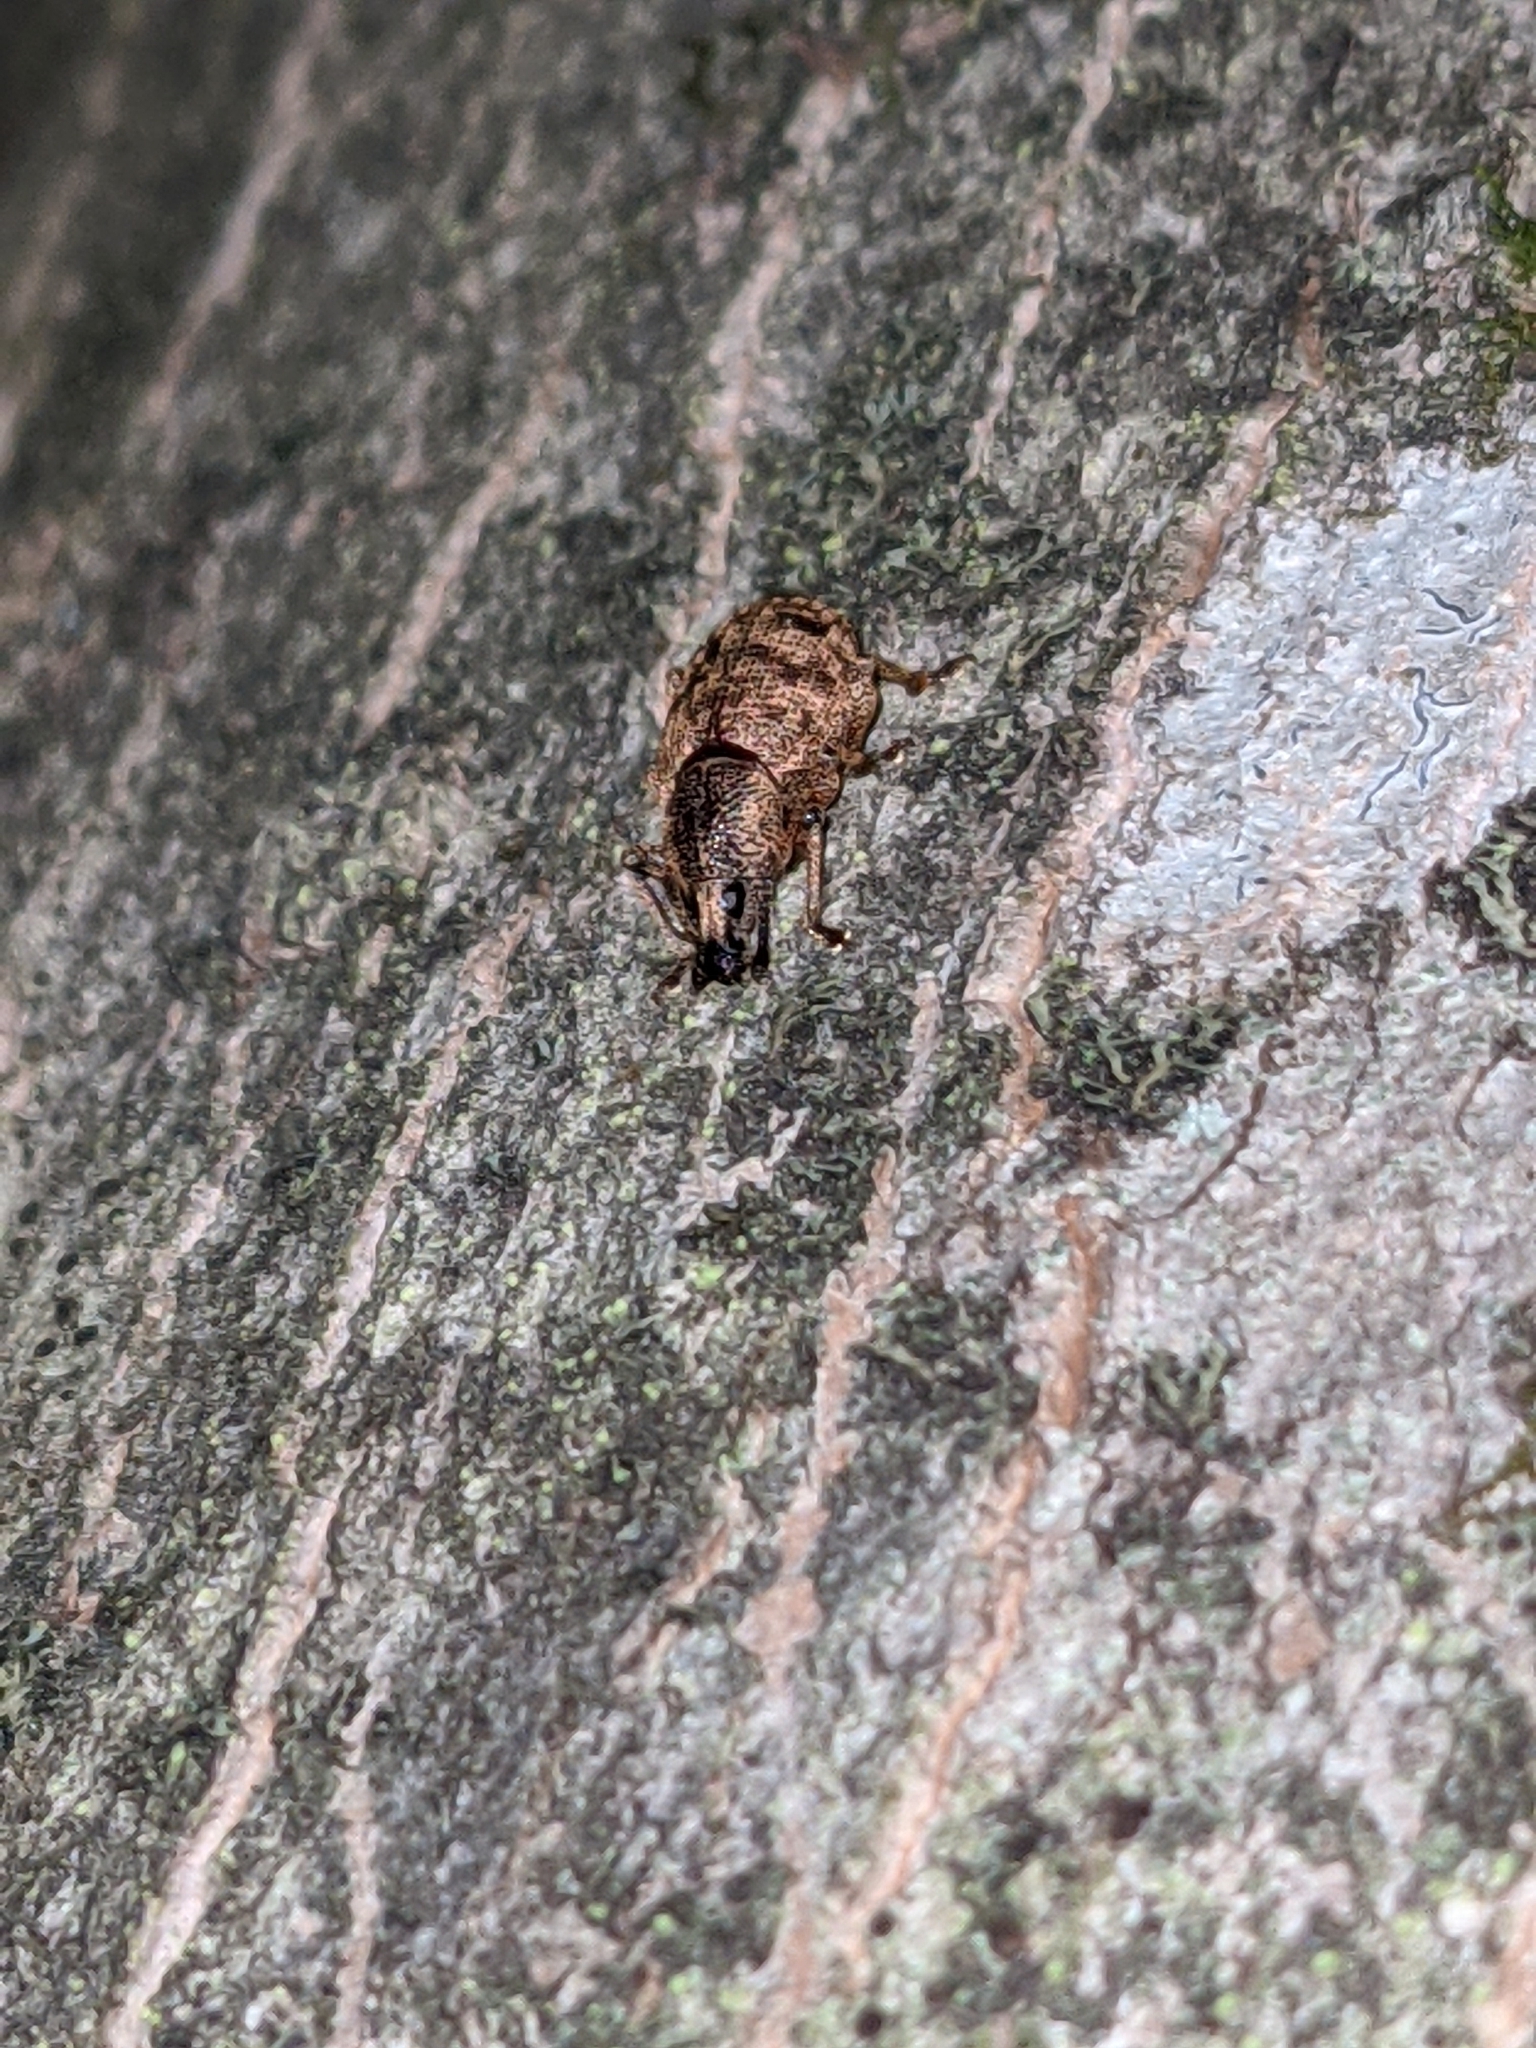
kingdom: Animalia
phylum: Arthropoda
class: Insecta
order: Coleoptera
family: Curculionidae
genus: Otiorhynchus
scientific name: Otiorhynchus singularis
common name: Clay-coloured weevil
